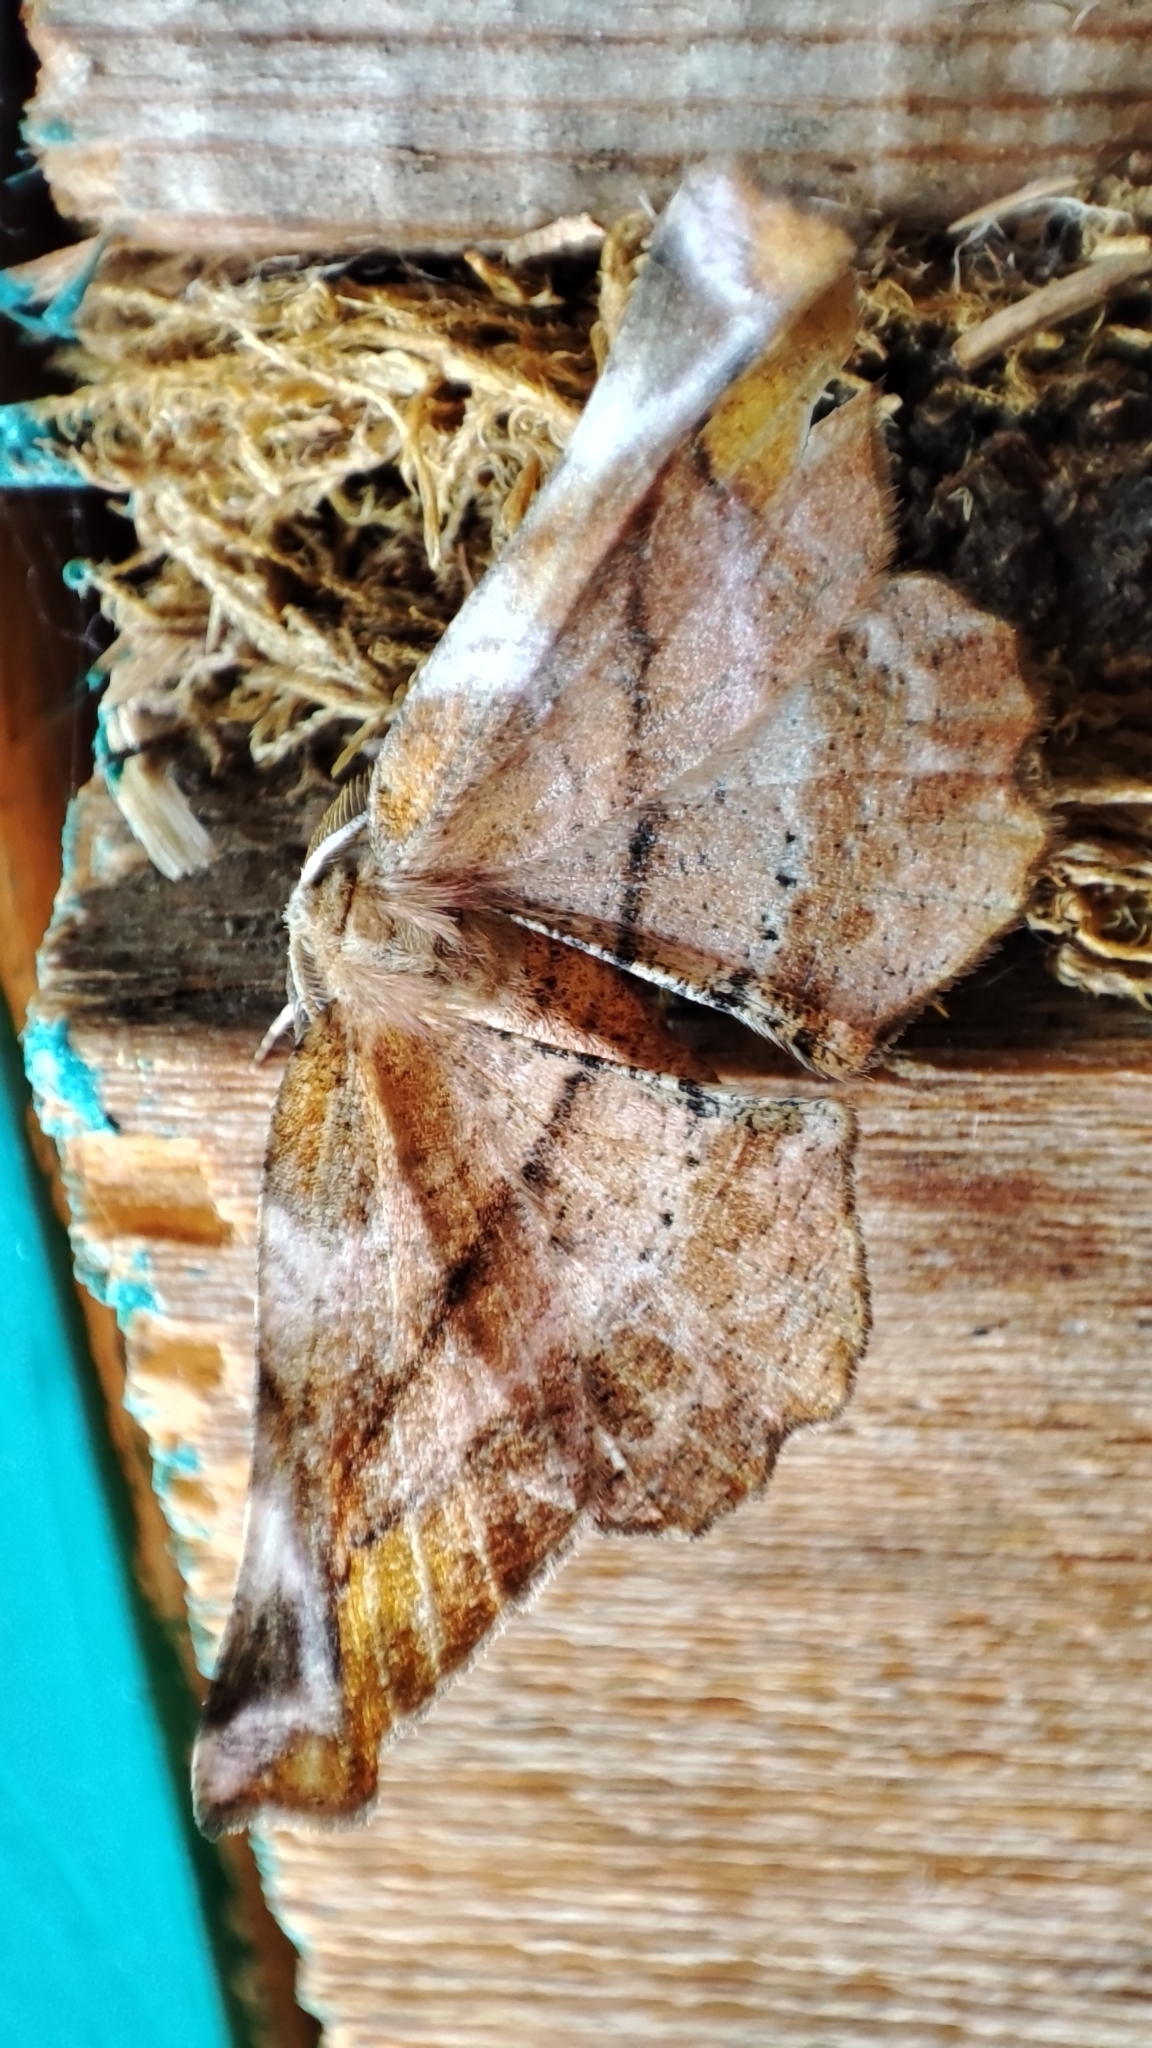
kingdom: Animalia
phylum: Arthropoda
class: Insecta
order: Lepidoptera
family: Geometridae
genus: Apeira
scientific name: Apeira syringaria
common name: Lilac beauty
